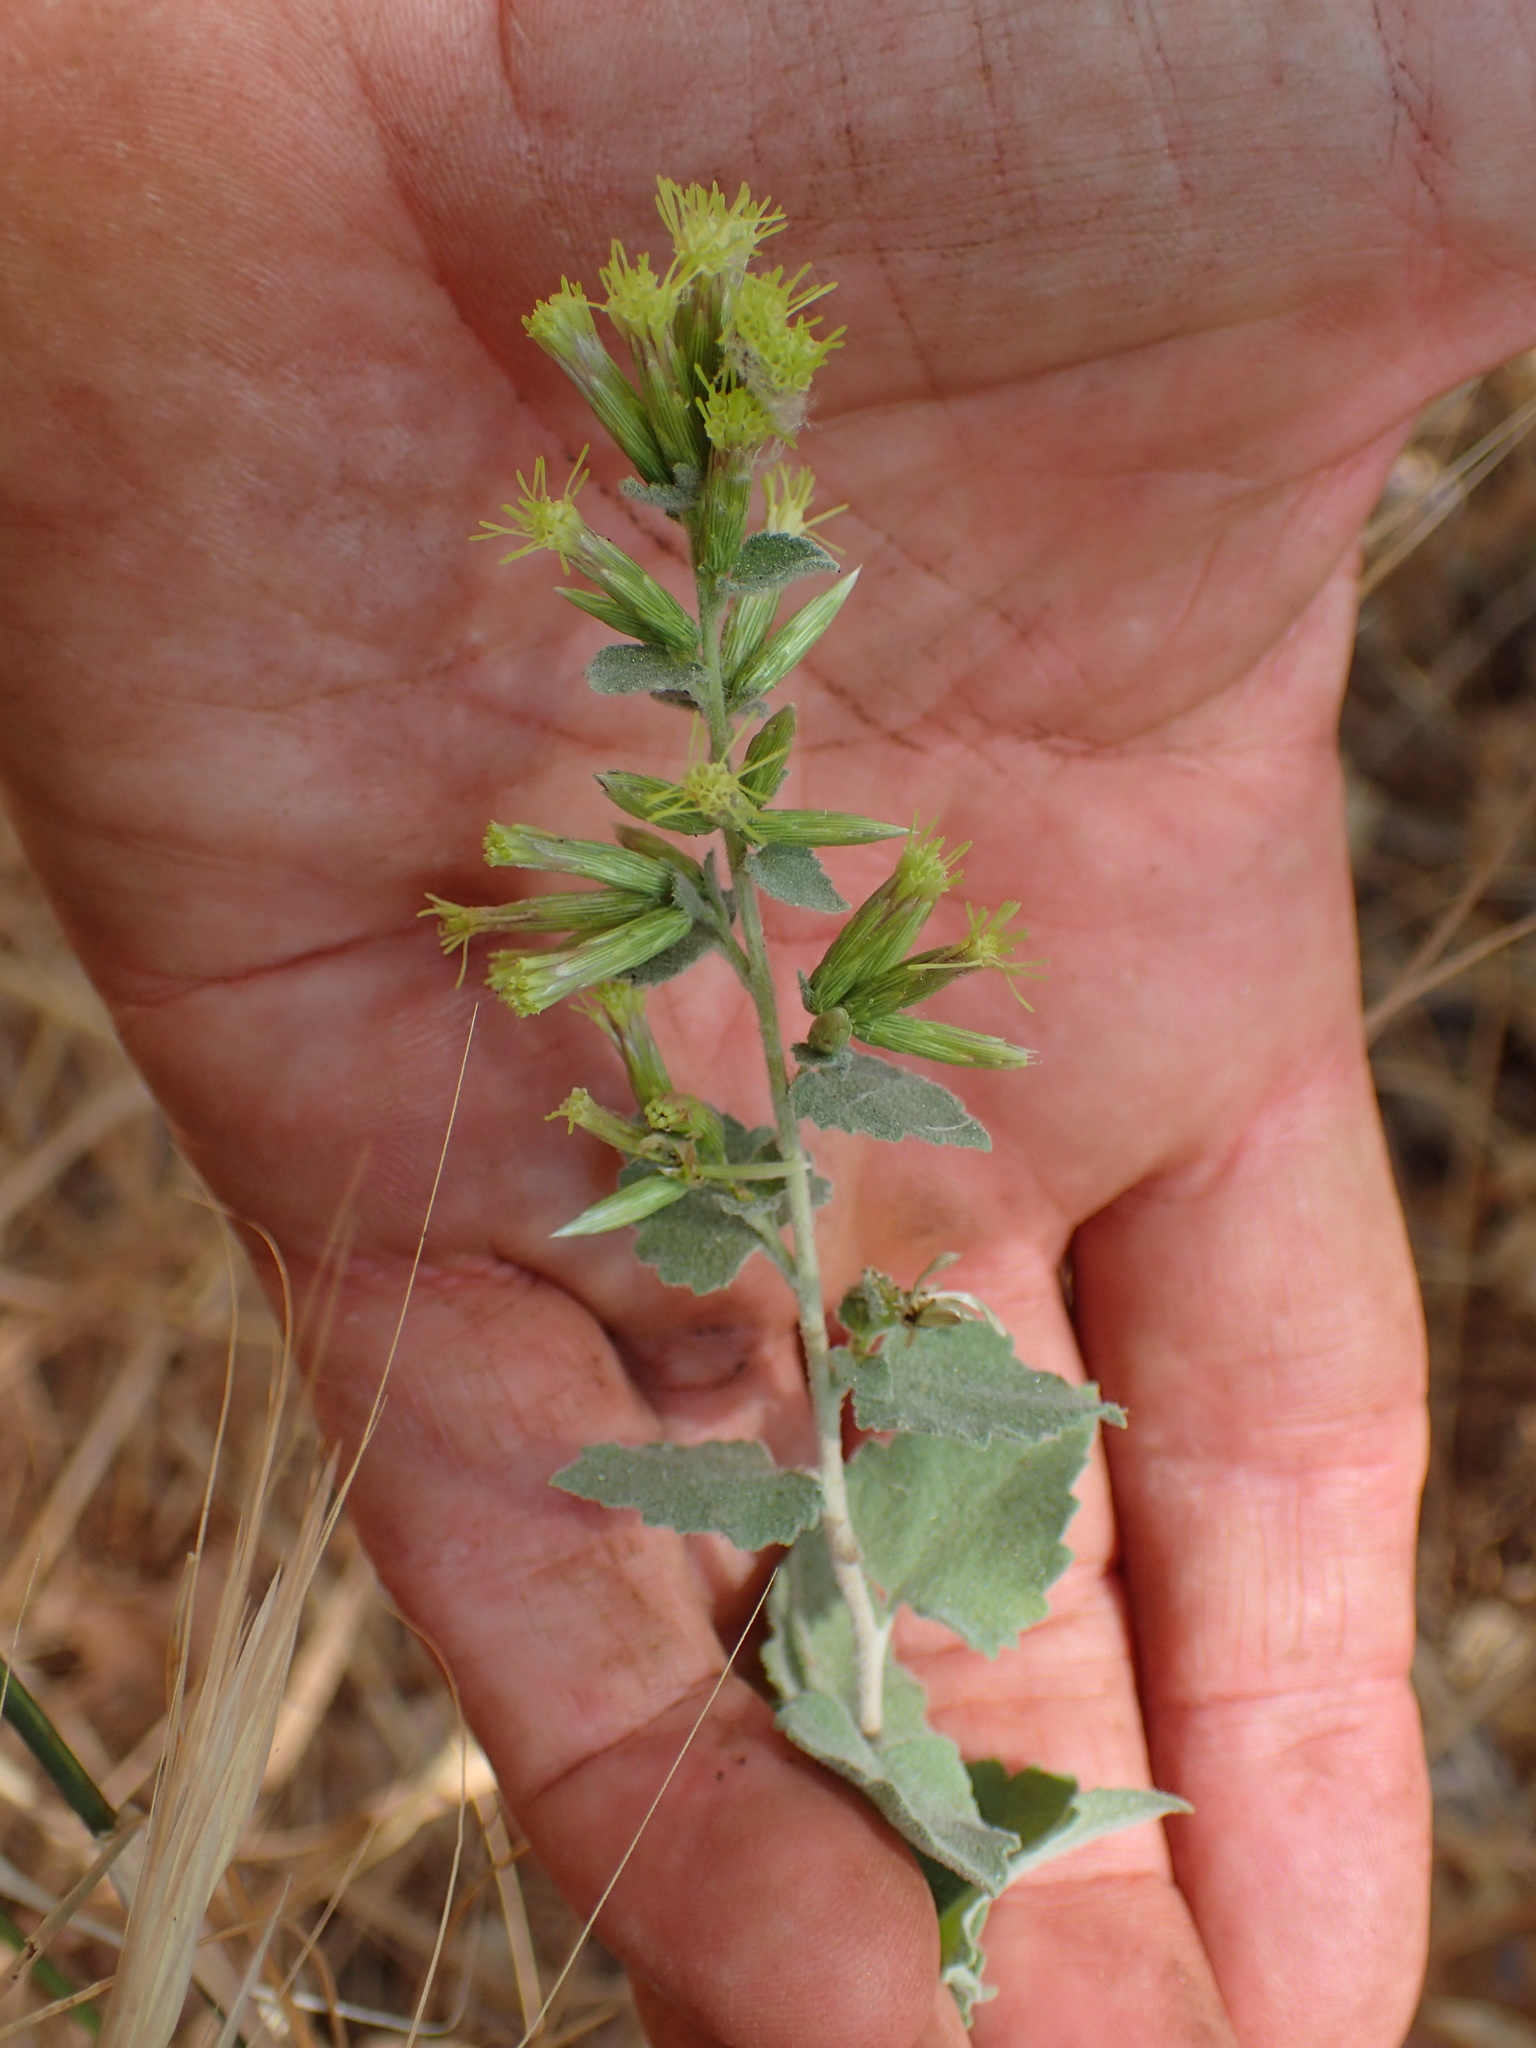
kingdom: Plantae
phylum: Tracheophyta
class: Magnoliopsida
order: Asterales
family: Asteraceae
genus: Brickellia
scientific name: Brickellia californica
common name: California brickellbush
